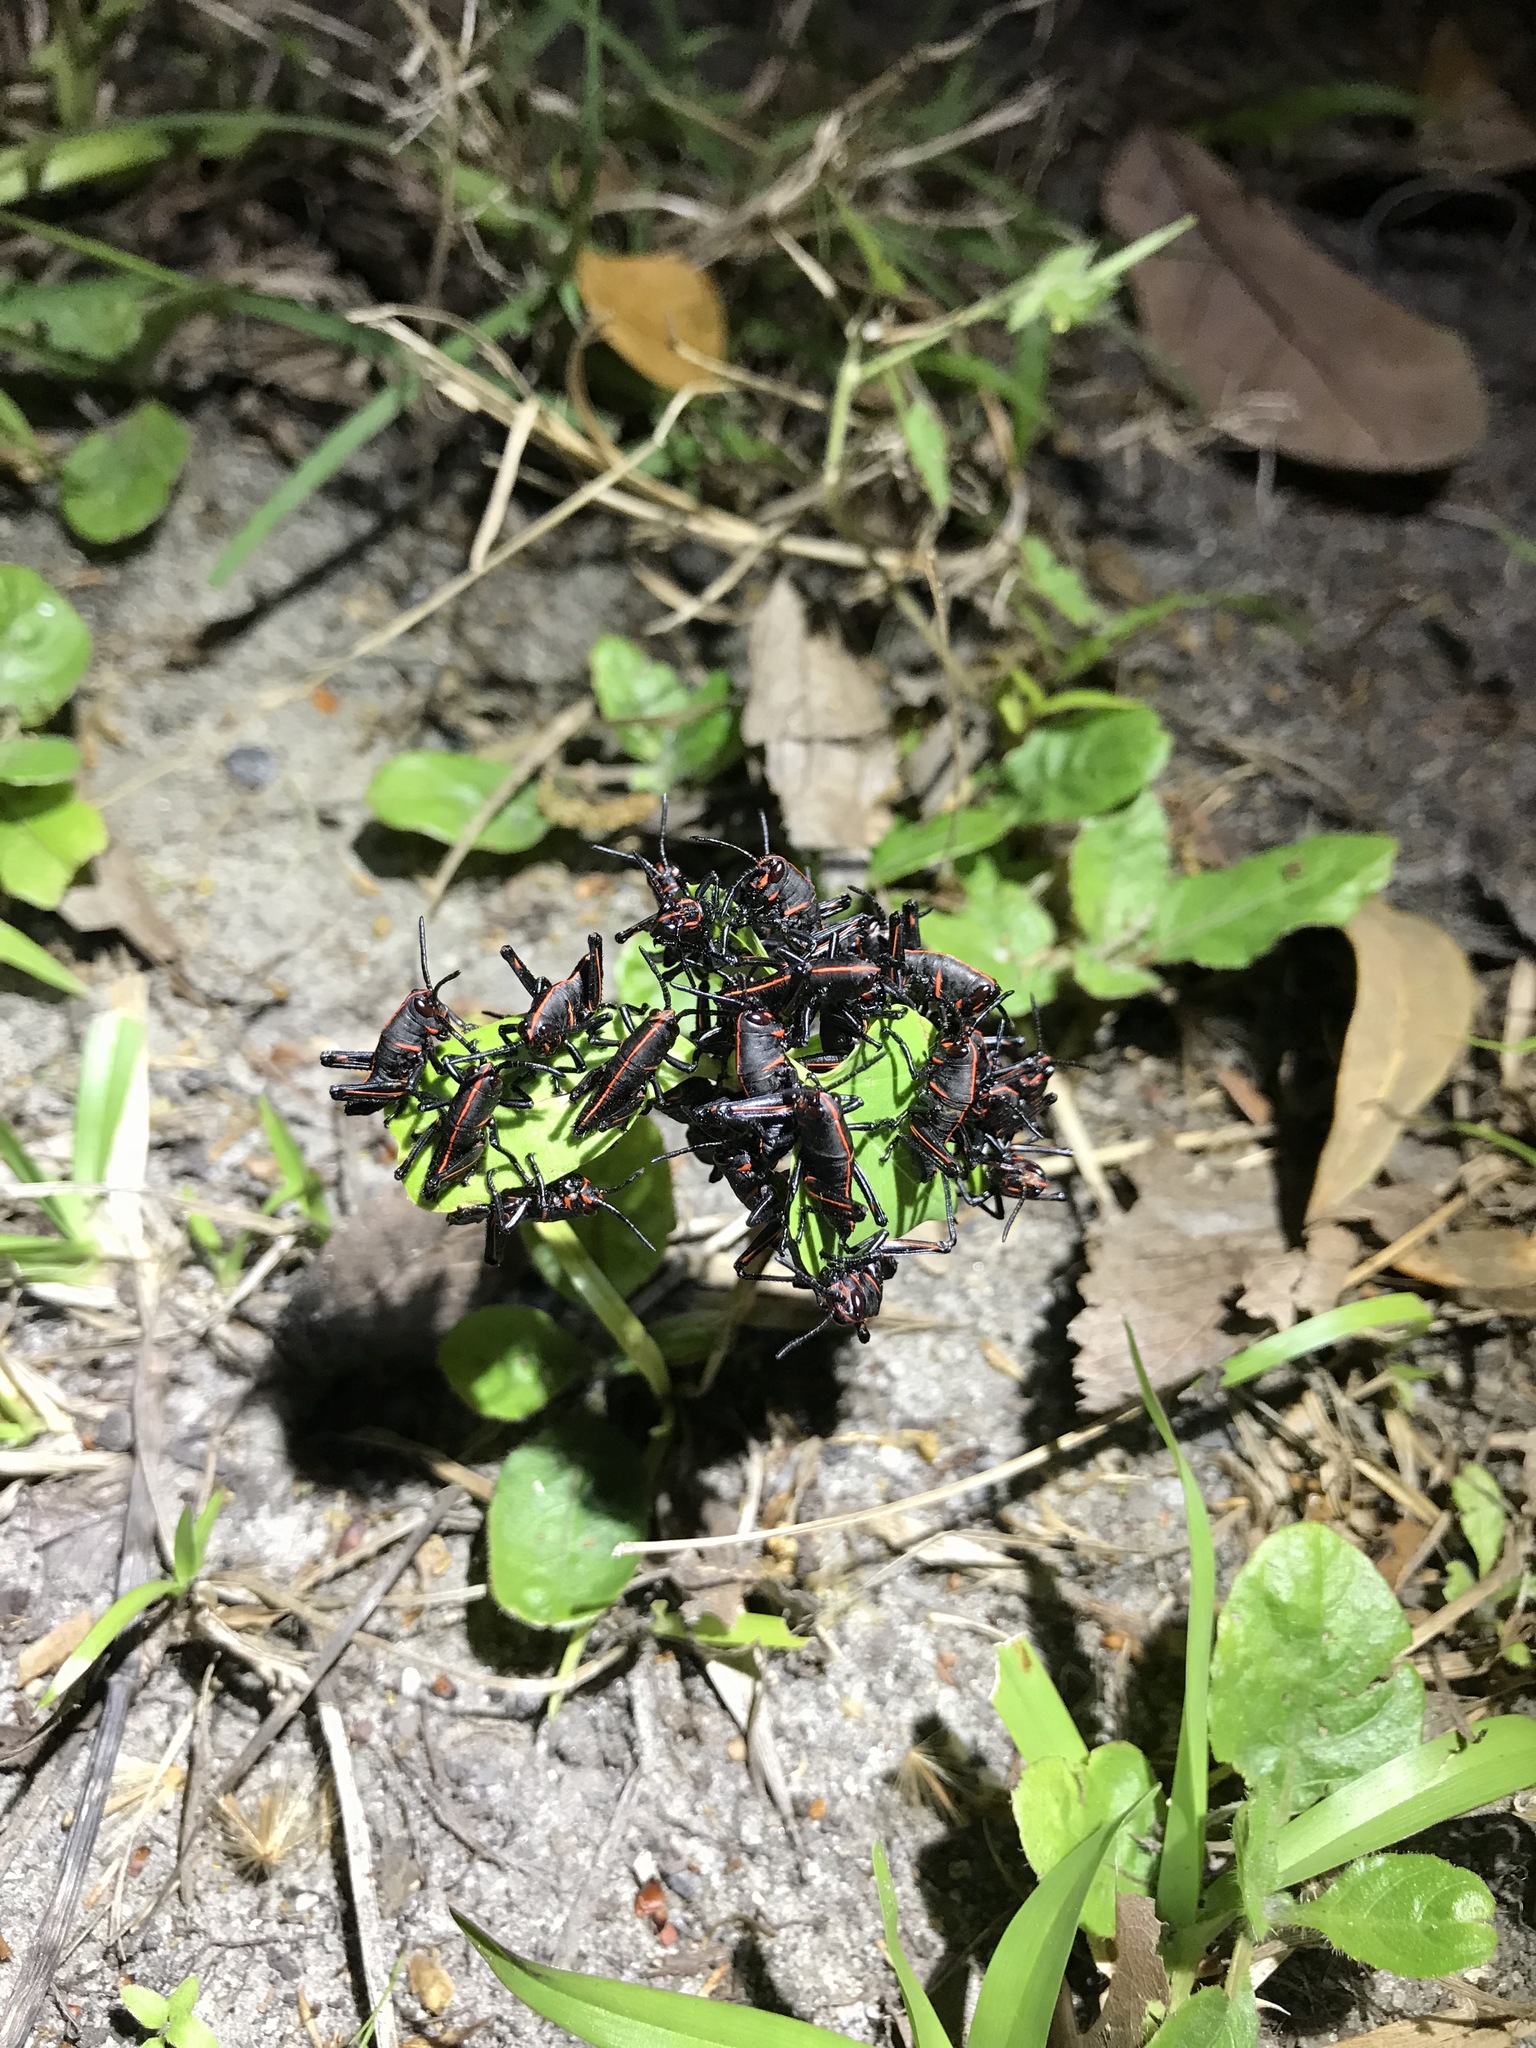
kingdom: Animalia
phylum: Arthropoda
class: Insecta
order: Orthoptera
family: Romaleidae
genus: Romalea
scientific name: Romalea microptera
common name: Eastern lubber grasshopper
